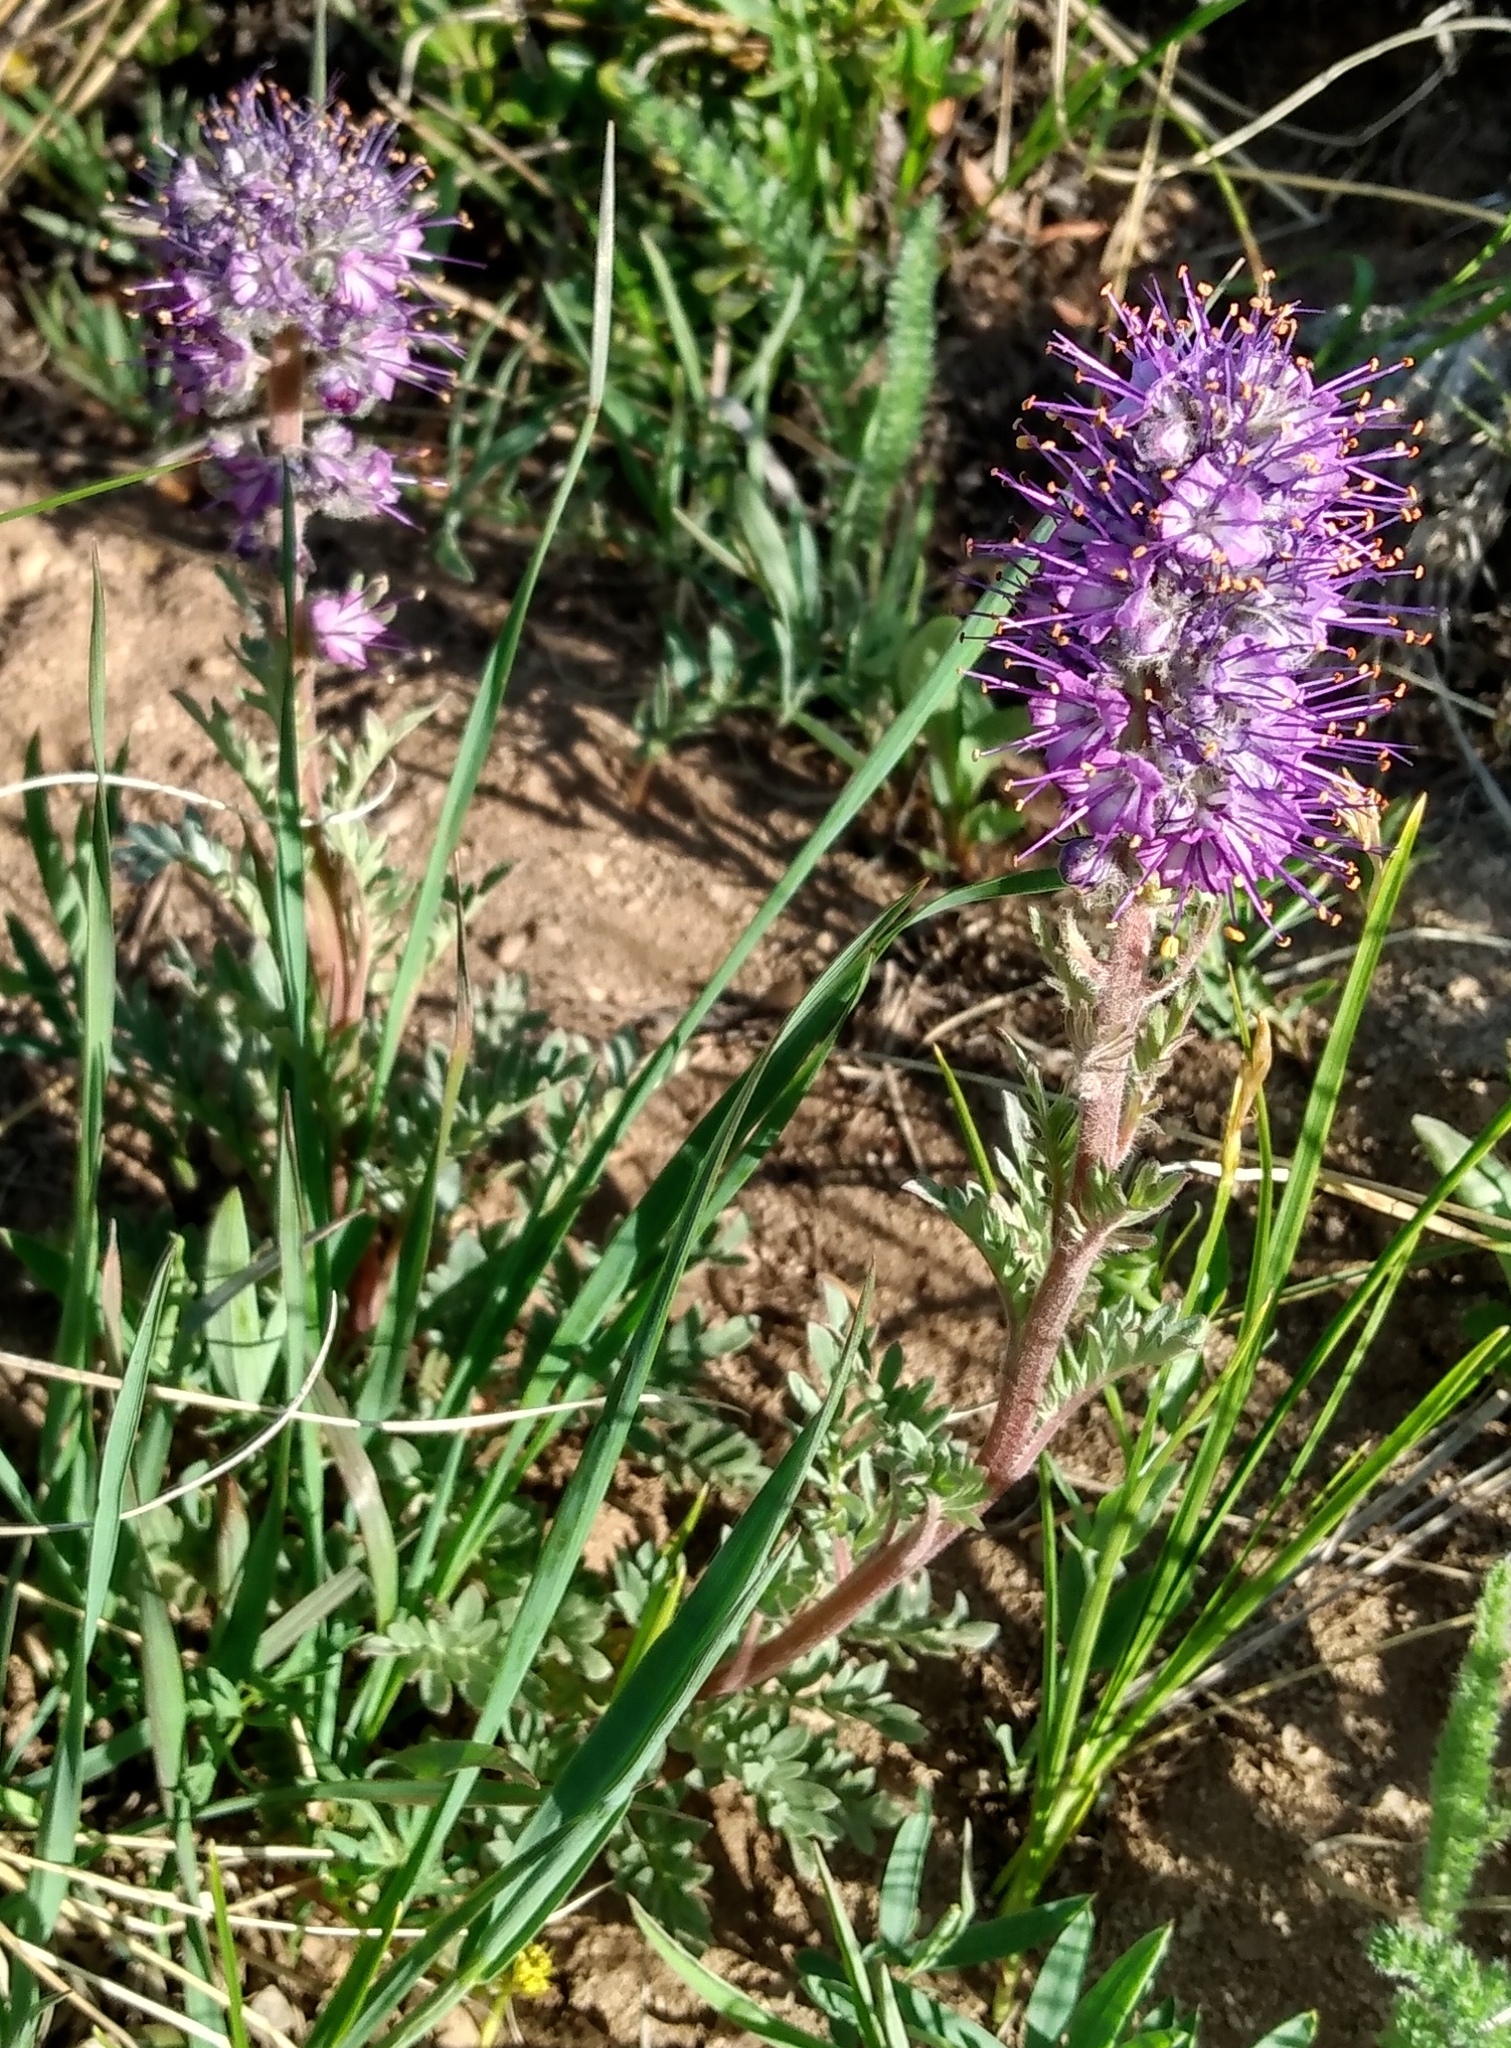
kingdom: Plantae
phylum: Tracheophyta
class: Magnoliopsida
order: Boraginales
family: Hydrophyllaceae
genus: Phacelia
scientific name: Phacelia sericea
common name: Silky phacelia
